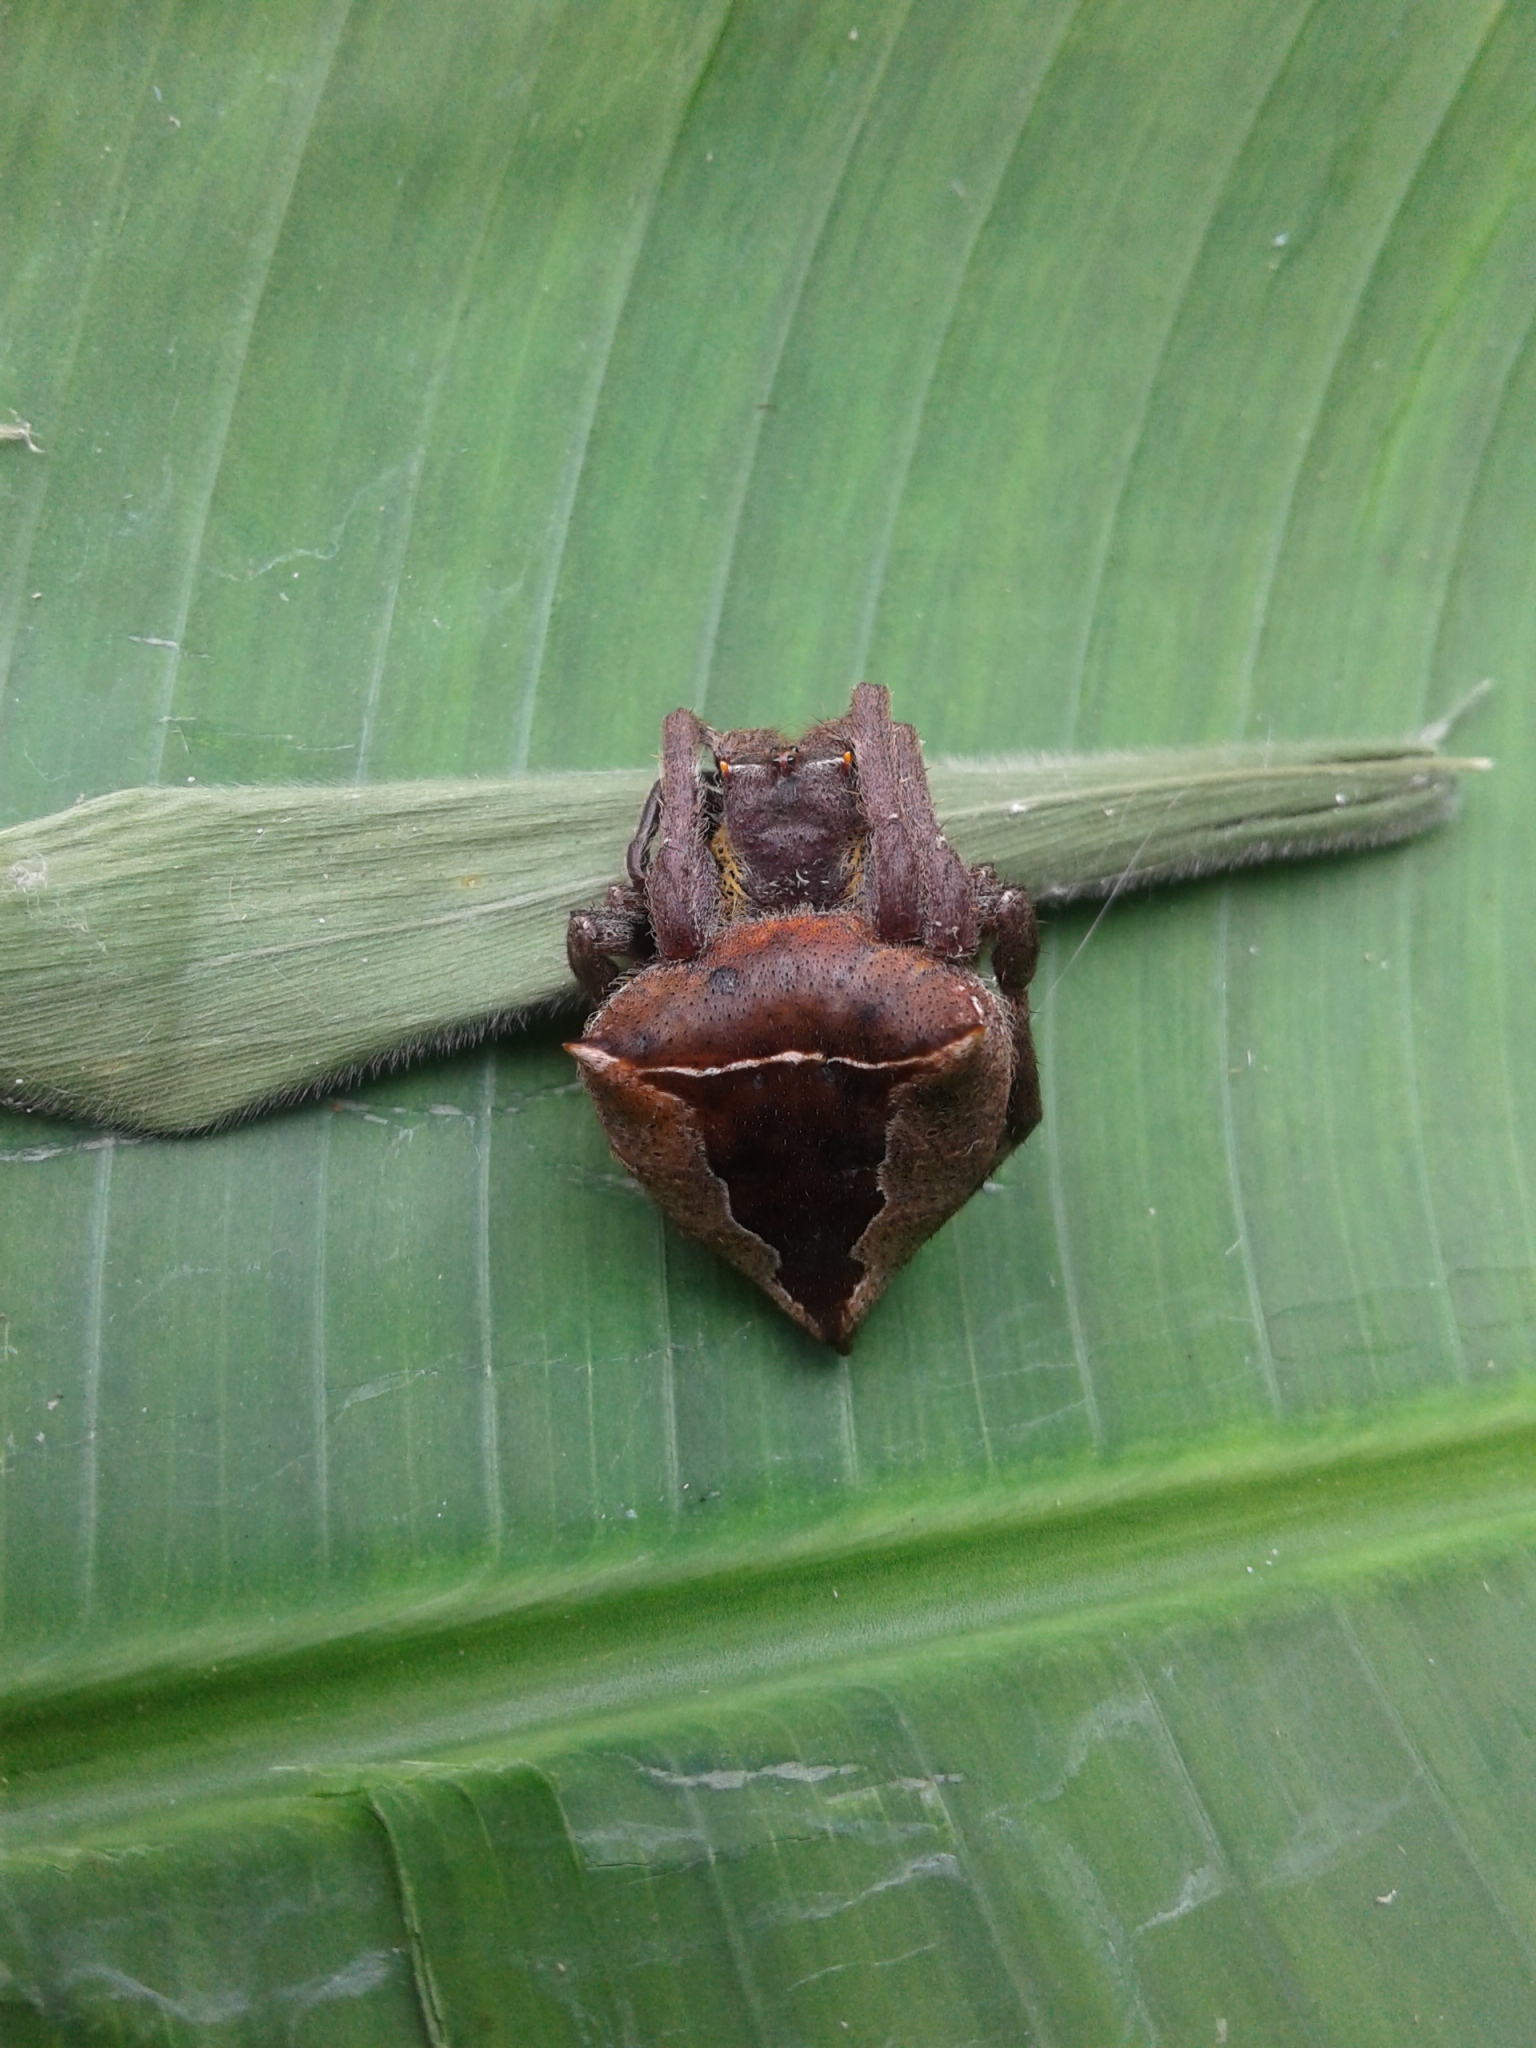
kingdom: Animalia
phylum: Arthropoda
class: Arachnida
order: Araneae
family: Araneidae
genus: Parawixia
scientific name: Parawixia dehaani
